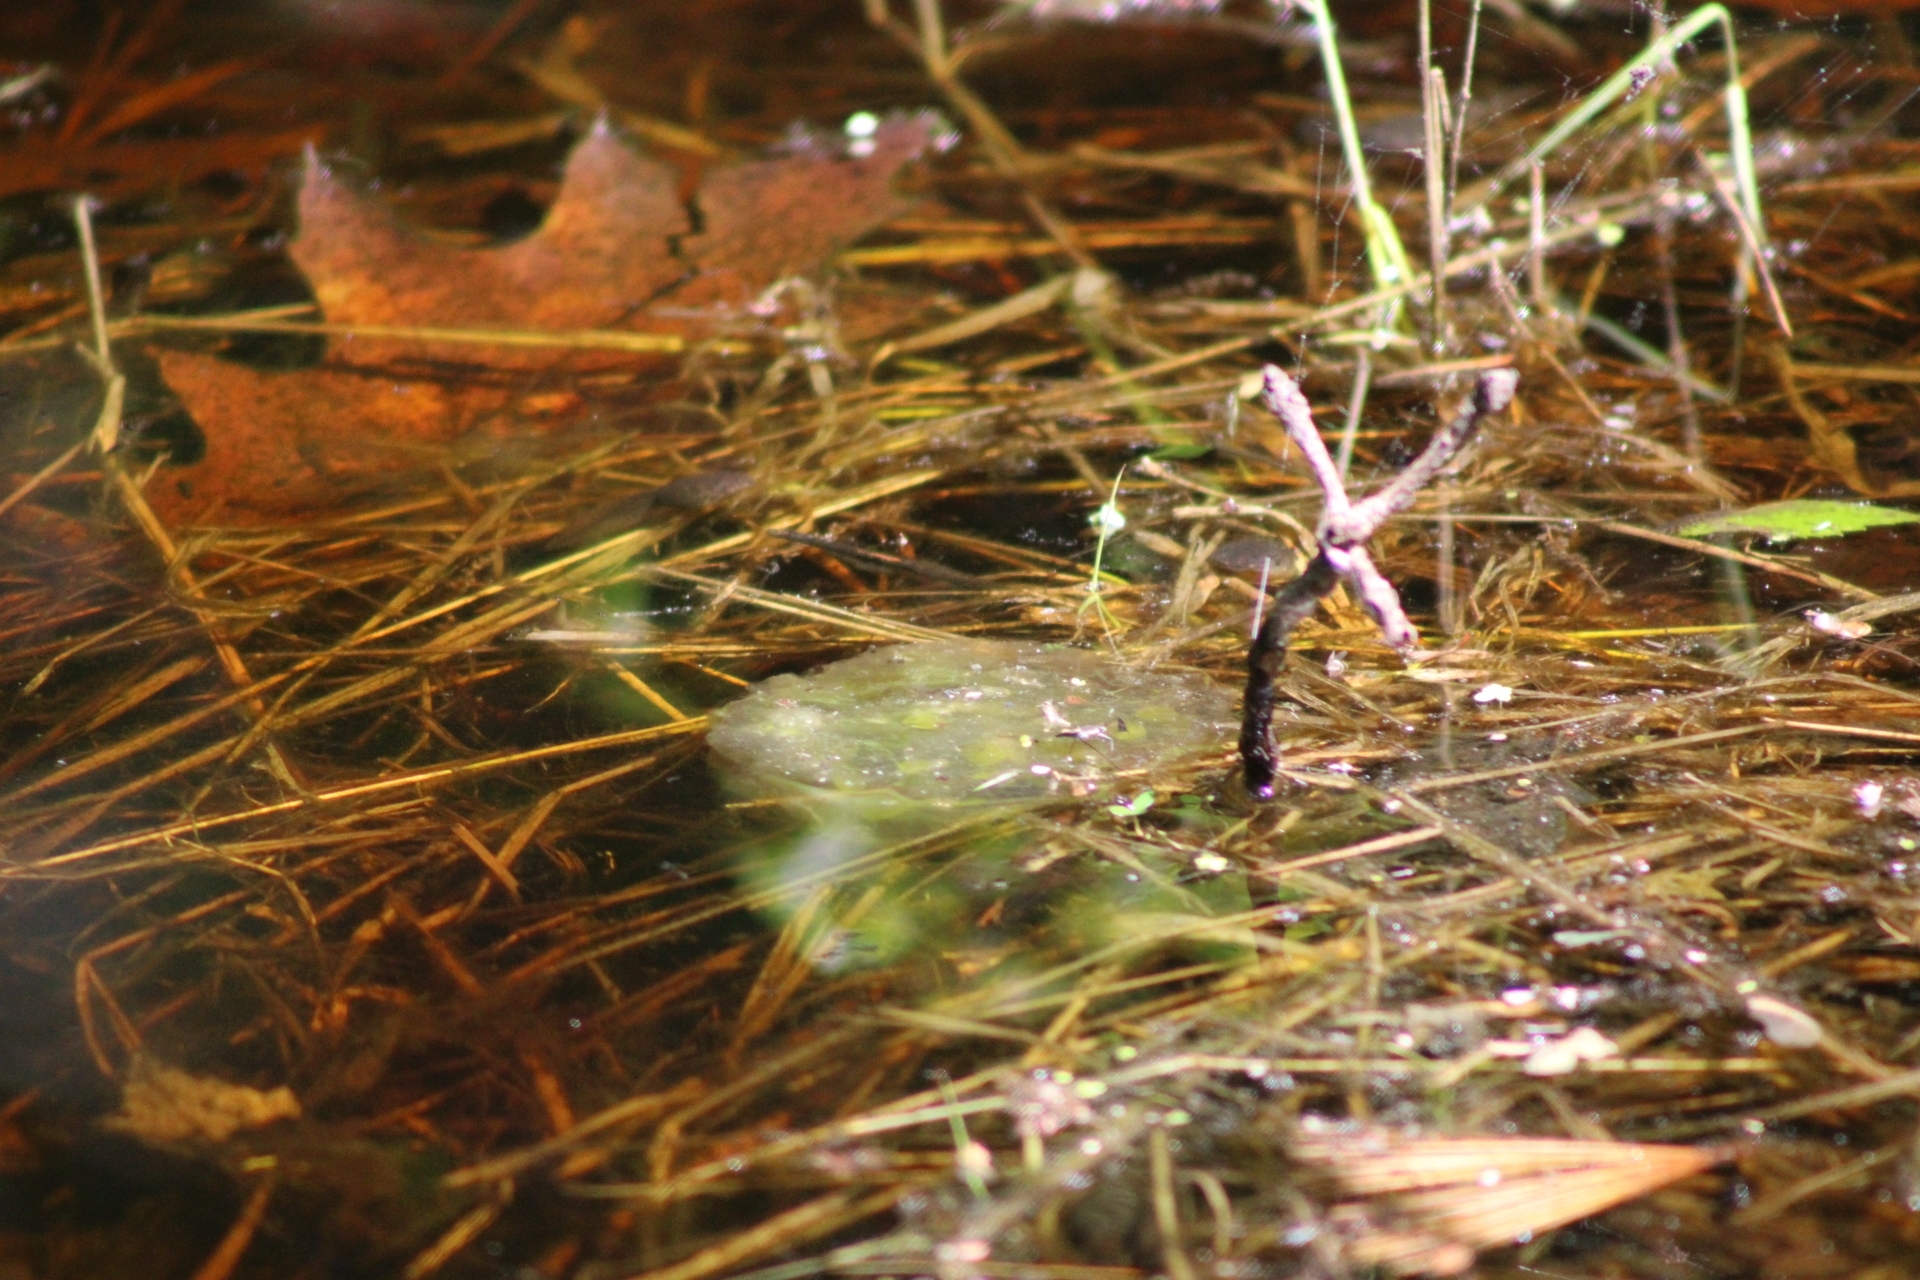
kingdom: Animalia
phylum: Chordata
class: Amphibia
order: Caudata
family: Ambystomatidae
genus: Ambystoma
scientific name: Ambystoma maculatum
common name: Spotted salamander
